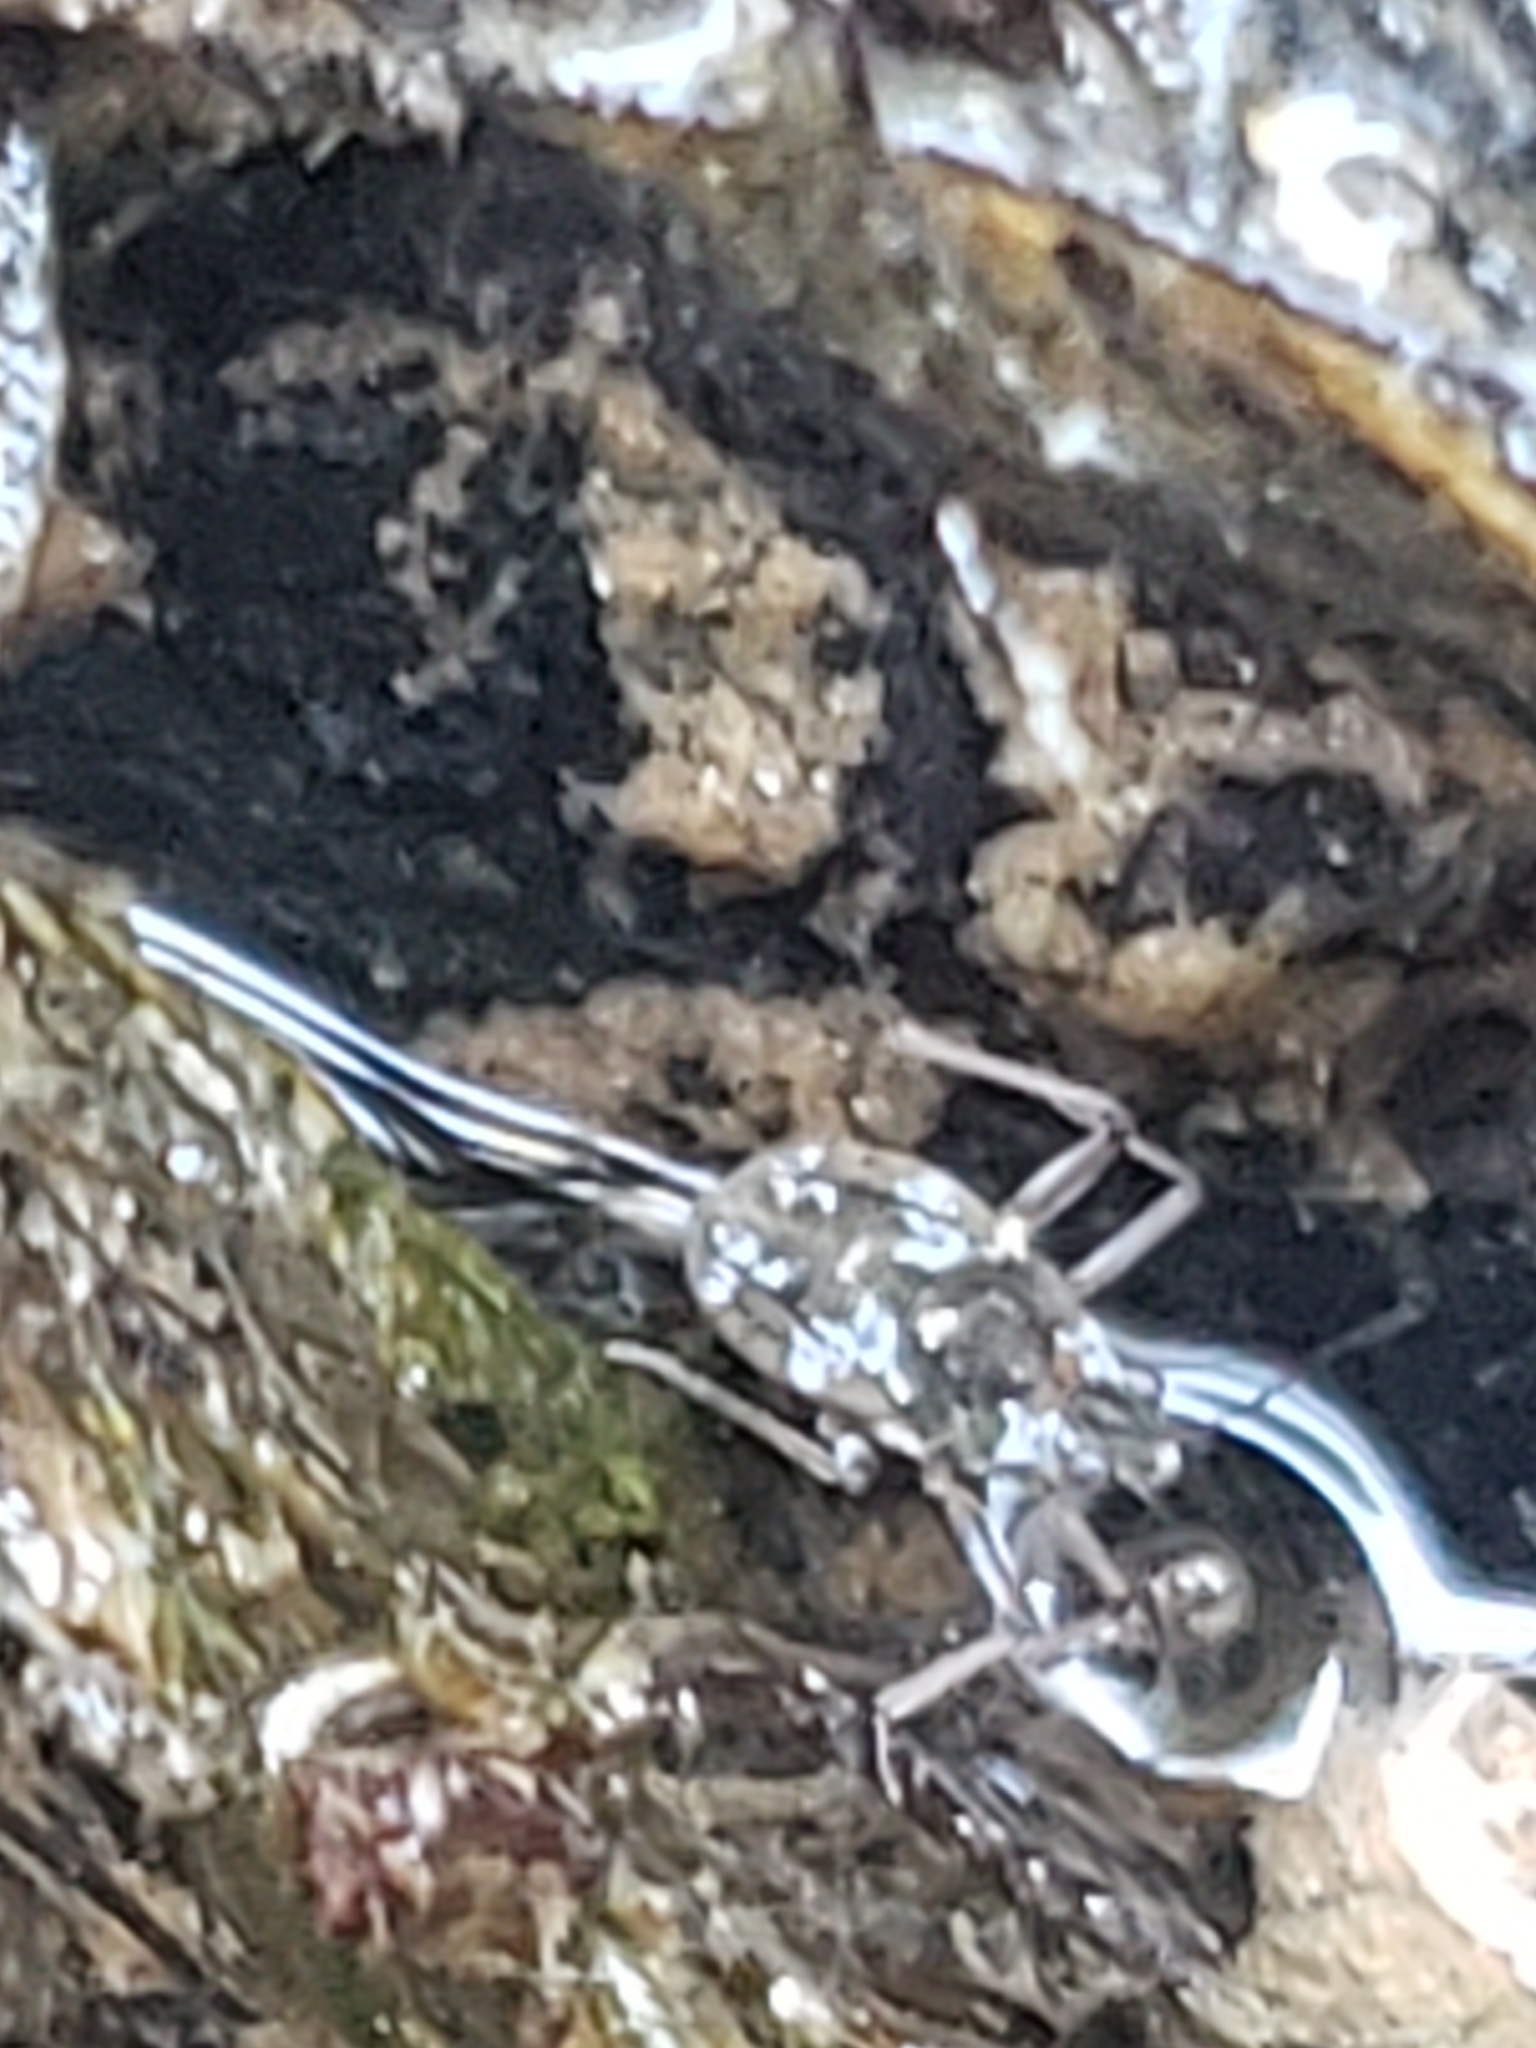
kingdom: Animalia
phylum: Arthropoda
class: Insecta
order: Hemiptera
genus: Kirkaldya
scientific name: Kirkaldya
